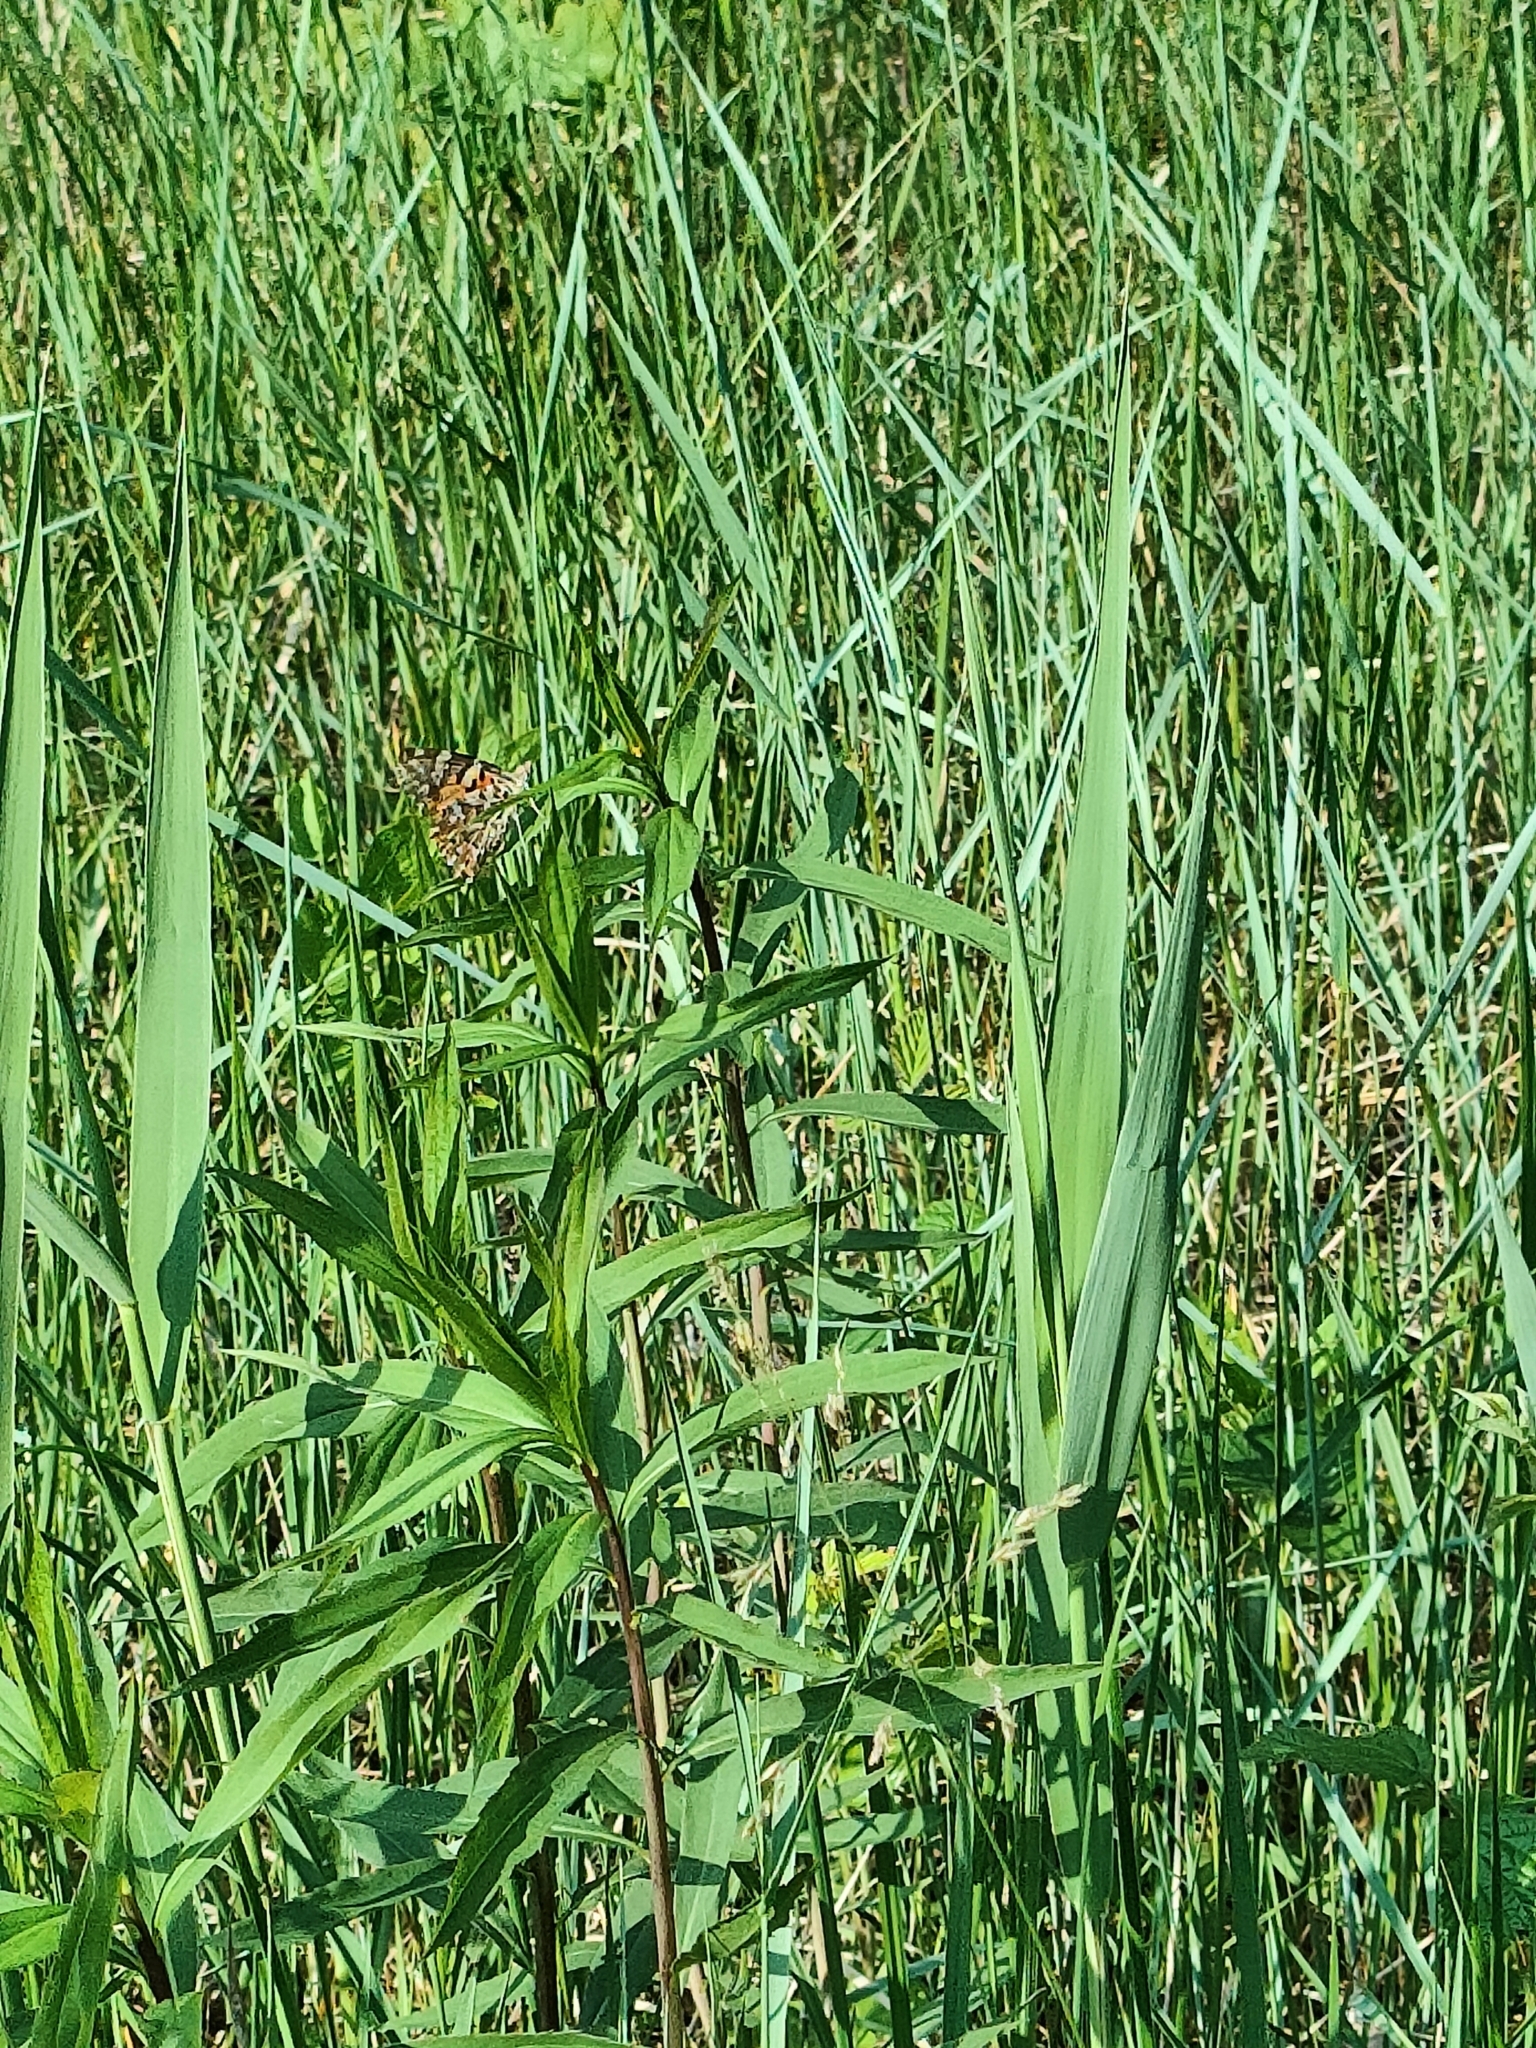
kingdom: Animalia
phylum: Arthropoda
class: Insecta
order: Lepidoptera
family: Nymphalidae
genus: Vanessa
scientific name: Vanessa cardui
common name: Painted lady
